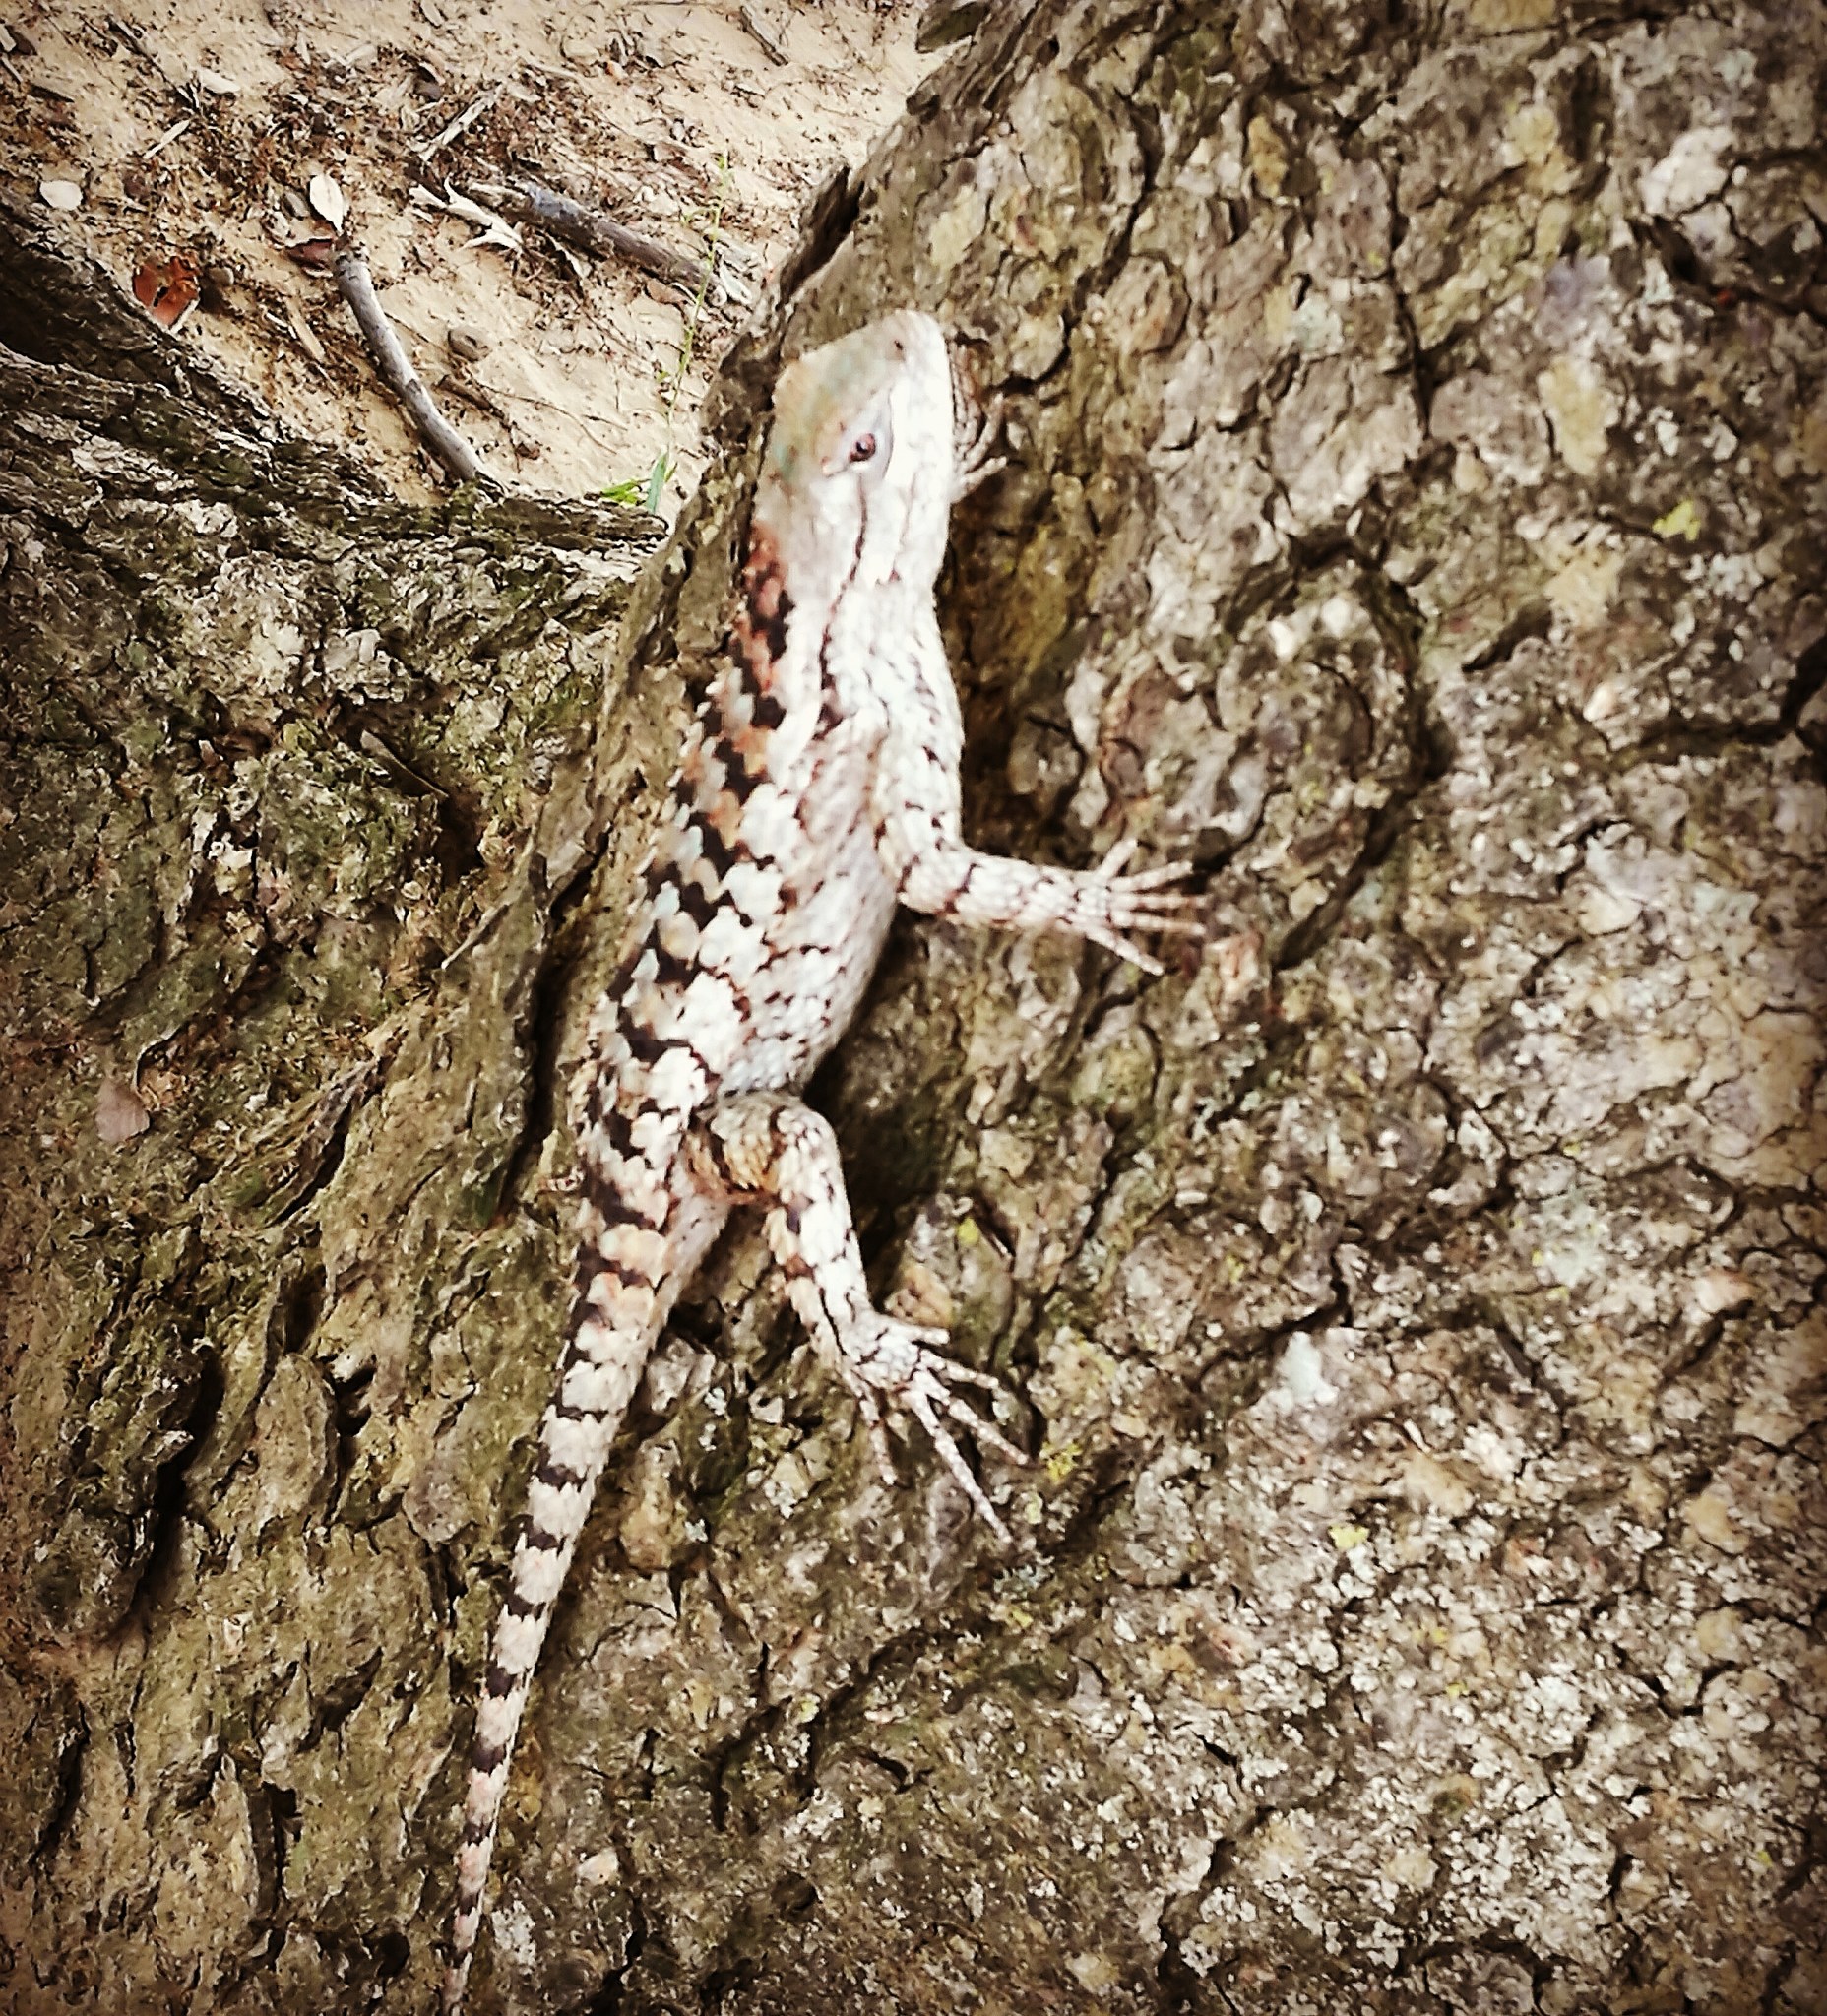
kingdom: Animalia
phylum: Chordata
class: Squamata
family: Phrynosomatidae
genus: Sceloporus
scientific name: Sceloporus olivaceus
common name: Texas spiny lizard
